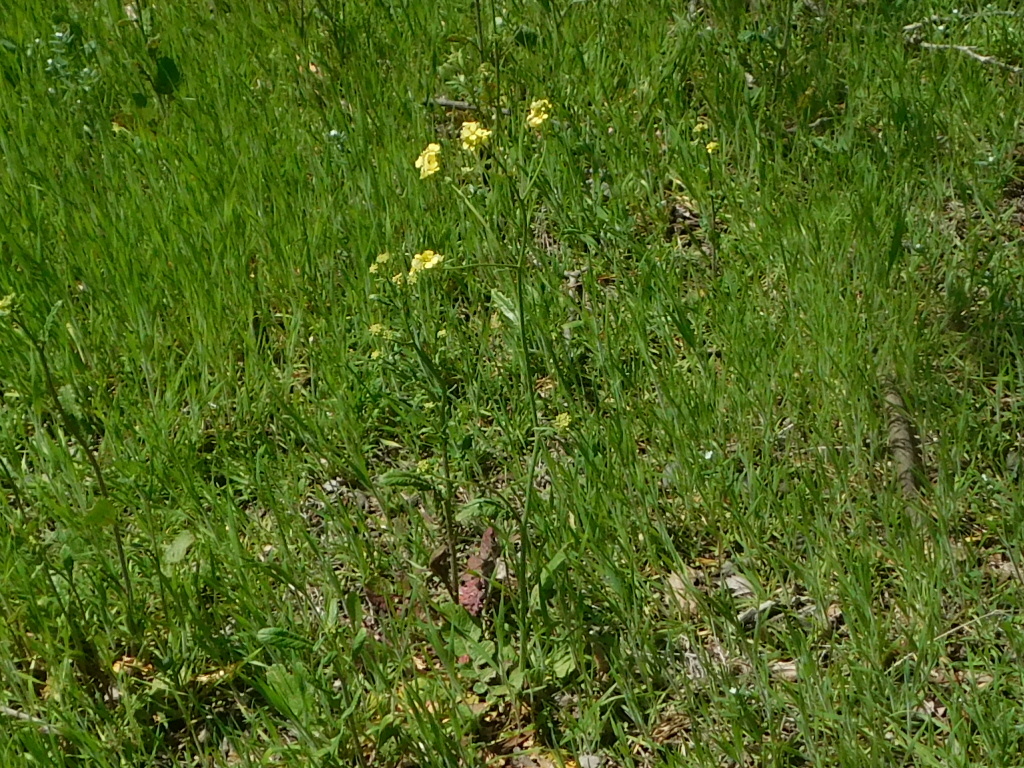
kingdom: Plantae
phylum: Tracheophyta
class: Magnoliopsida
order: Brassicales
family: Brassicaceae
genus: Rapistrum
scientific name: Rapistrum rugosum
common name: Annual bastardcabbage
